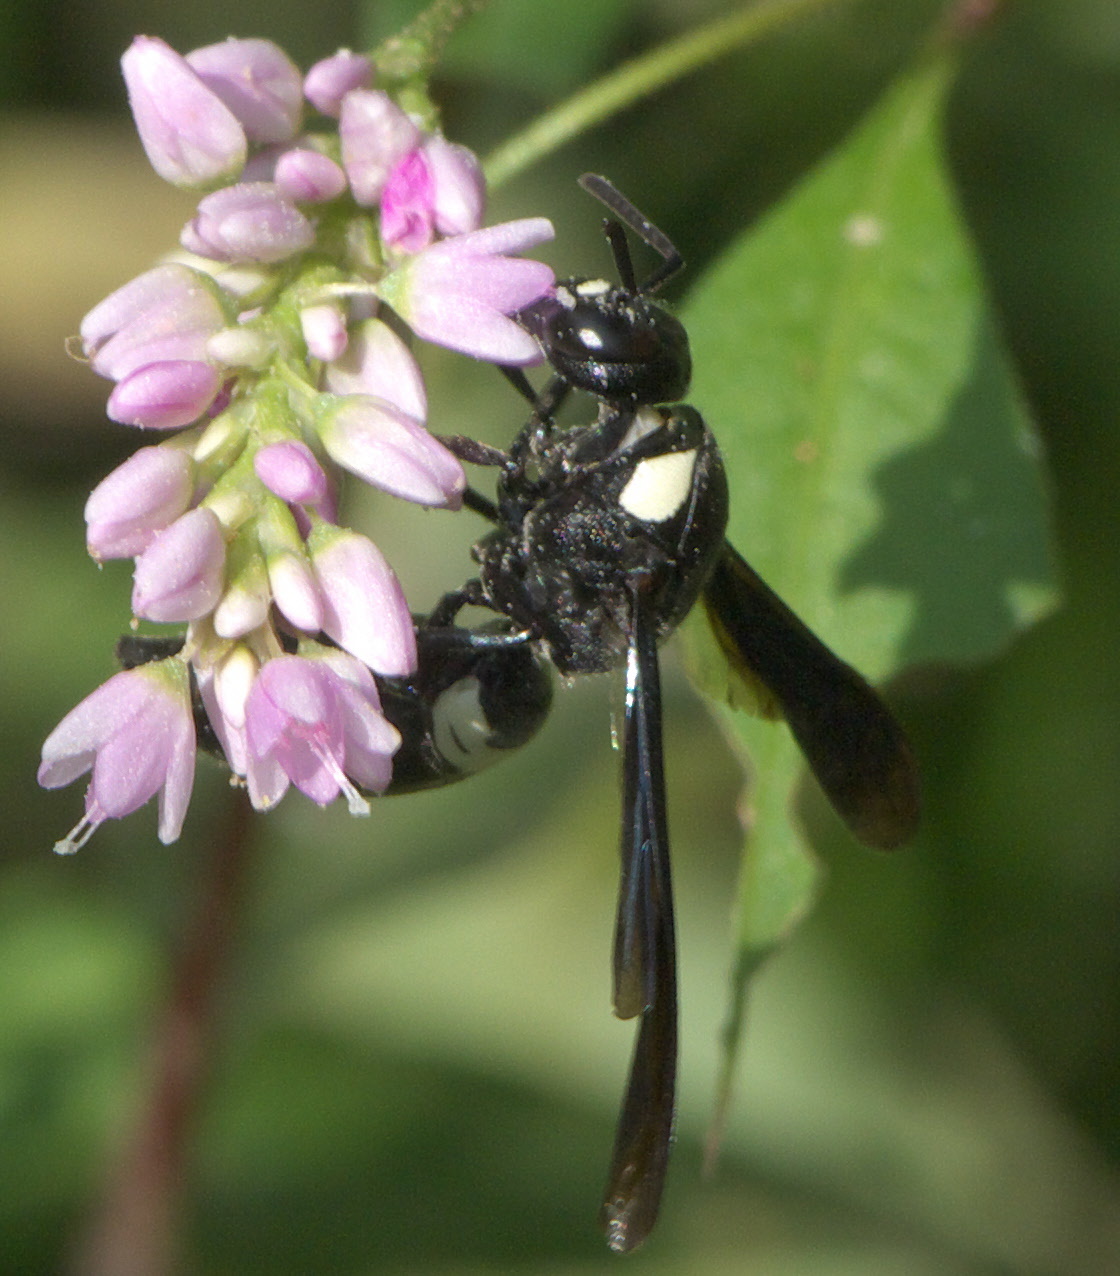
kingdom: Animalia
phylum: Arthropoda
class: Insecta
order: Hymenoptera
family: Eumenidae
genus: Monobia
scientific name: Monobia quadridens
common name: Four-toothed mason wasp
